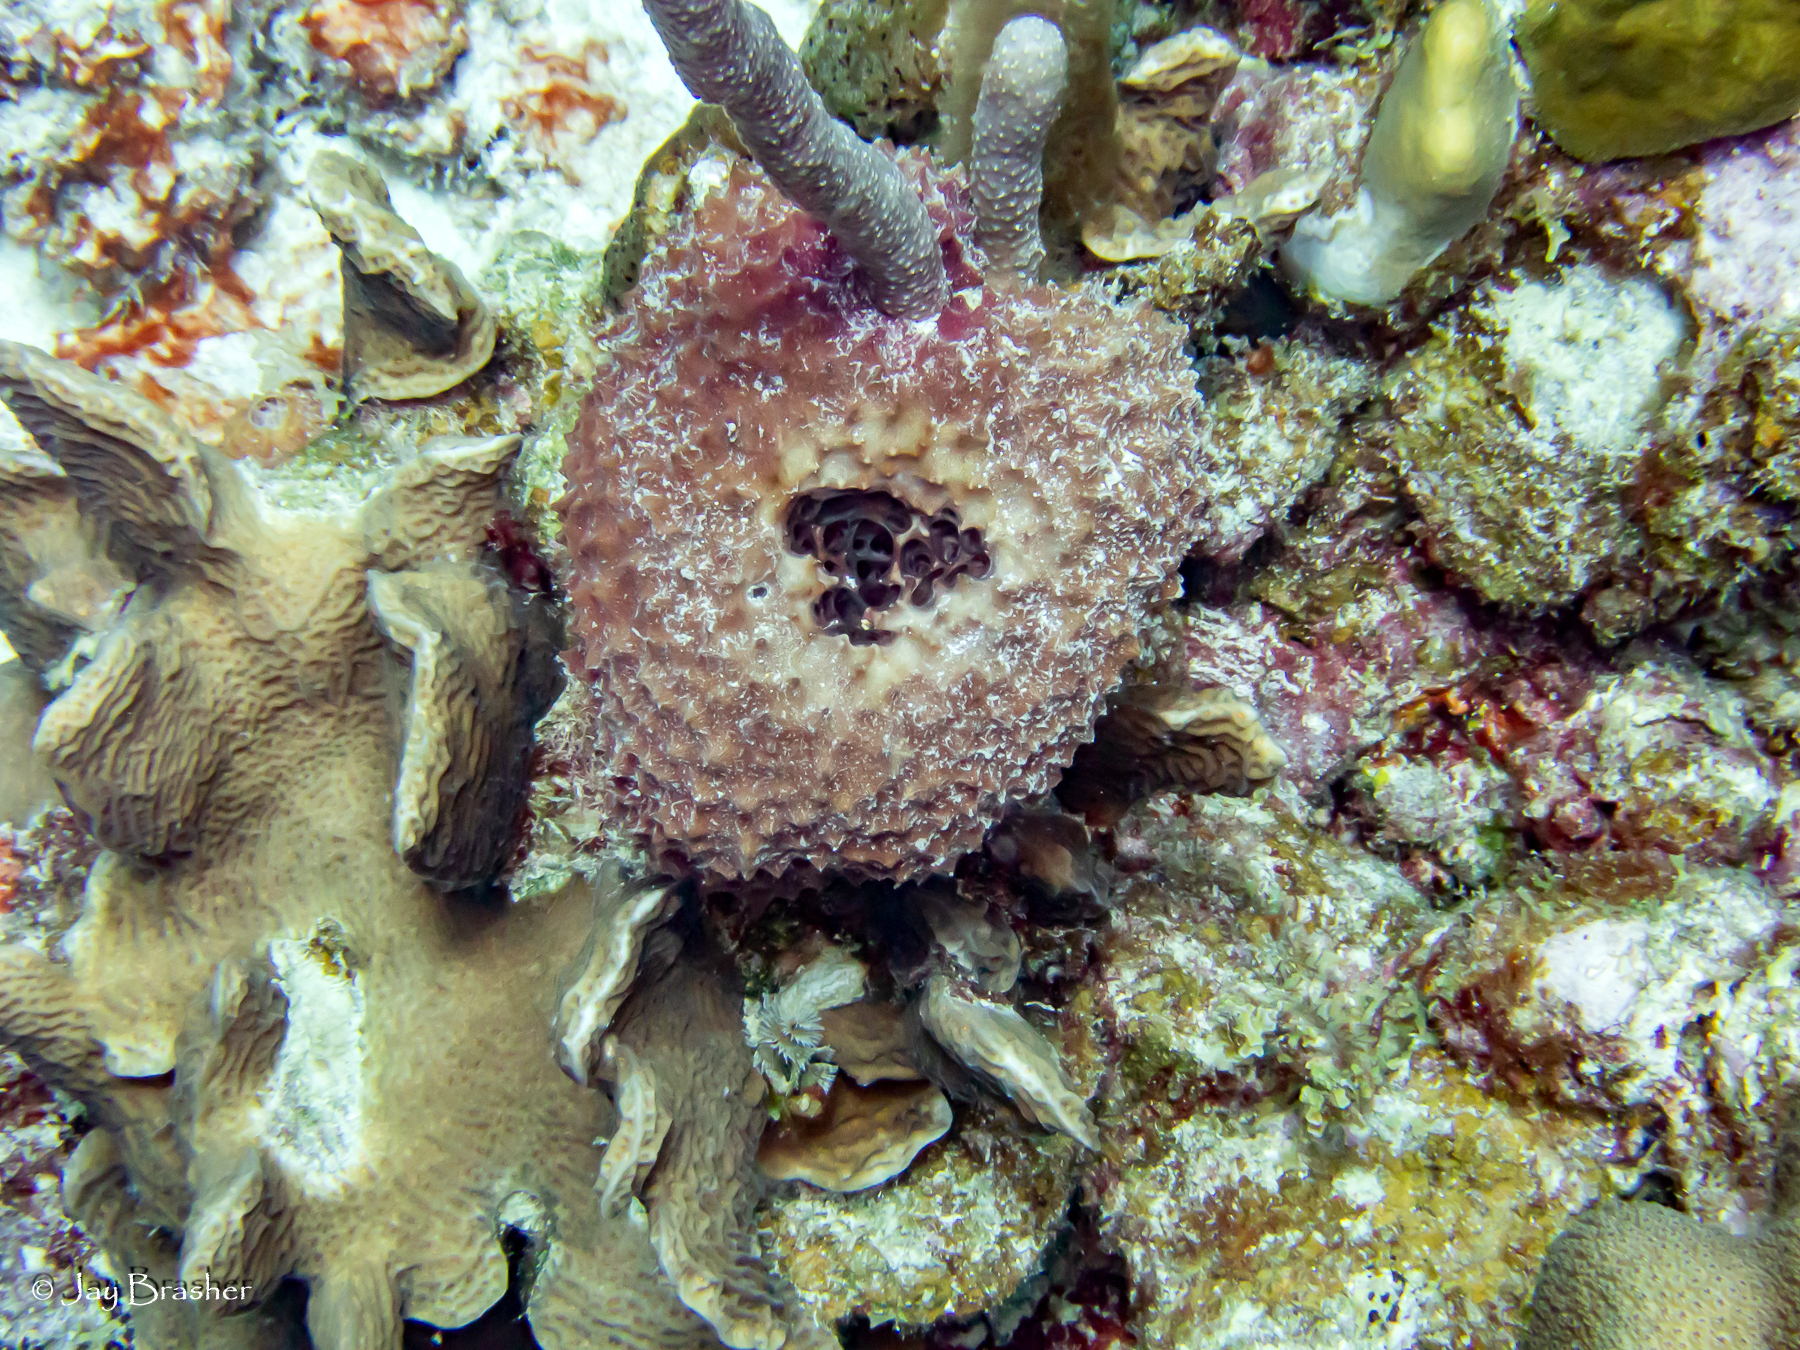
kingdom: Animalia
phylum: Porifera
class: Demospongiae
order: Dictyoceratida
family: Irciniidae
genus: Ircinia
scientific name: Ircinia felix
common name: Stinker sponge
